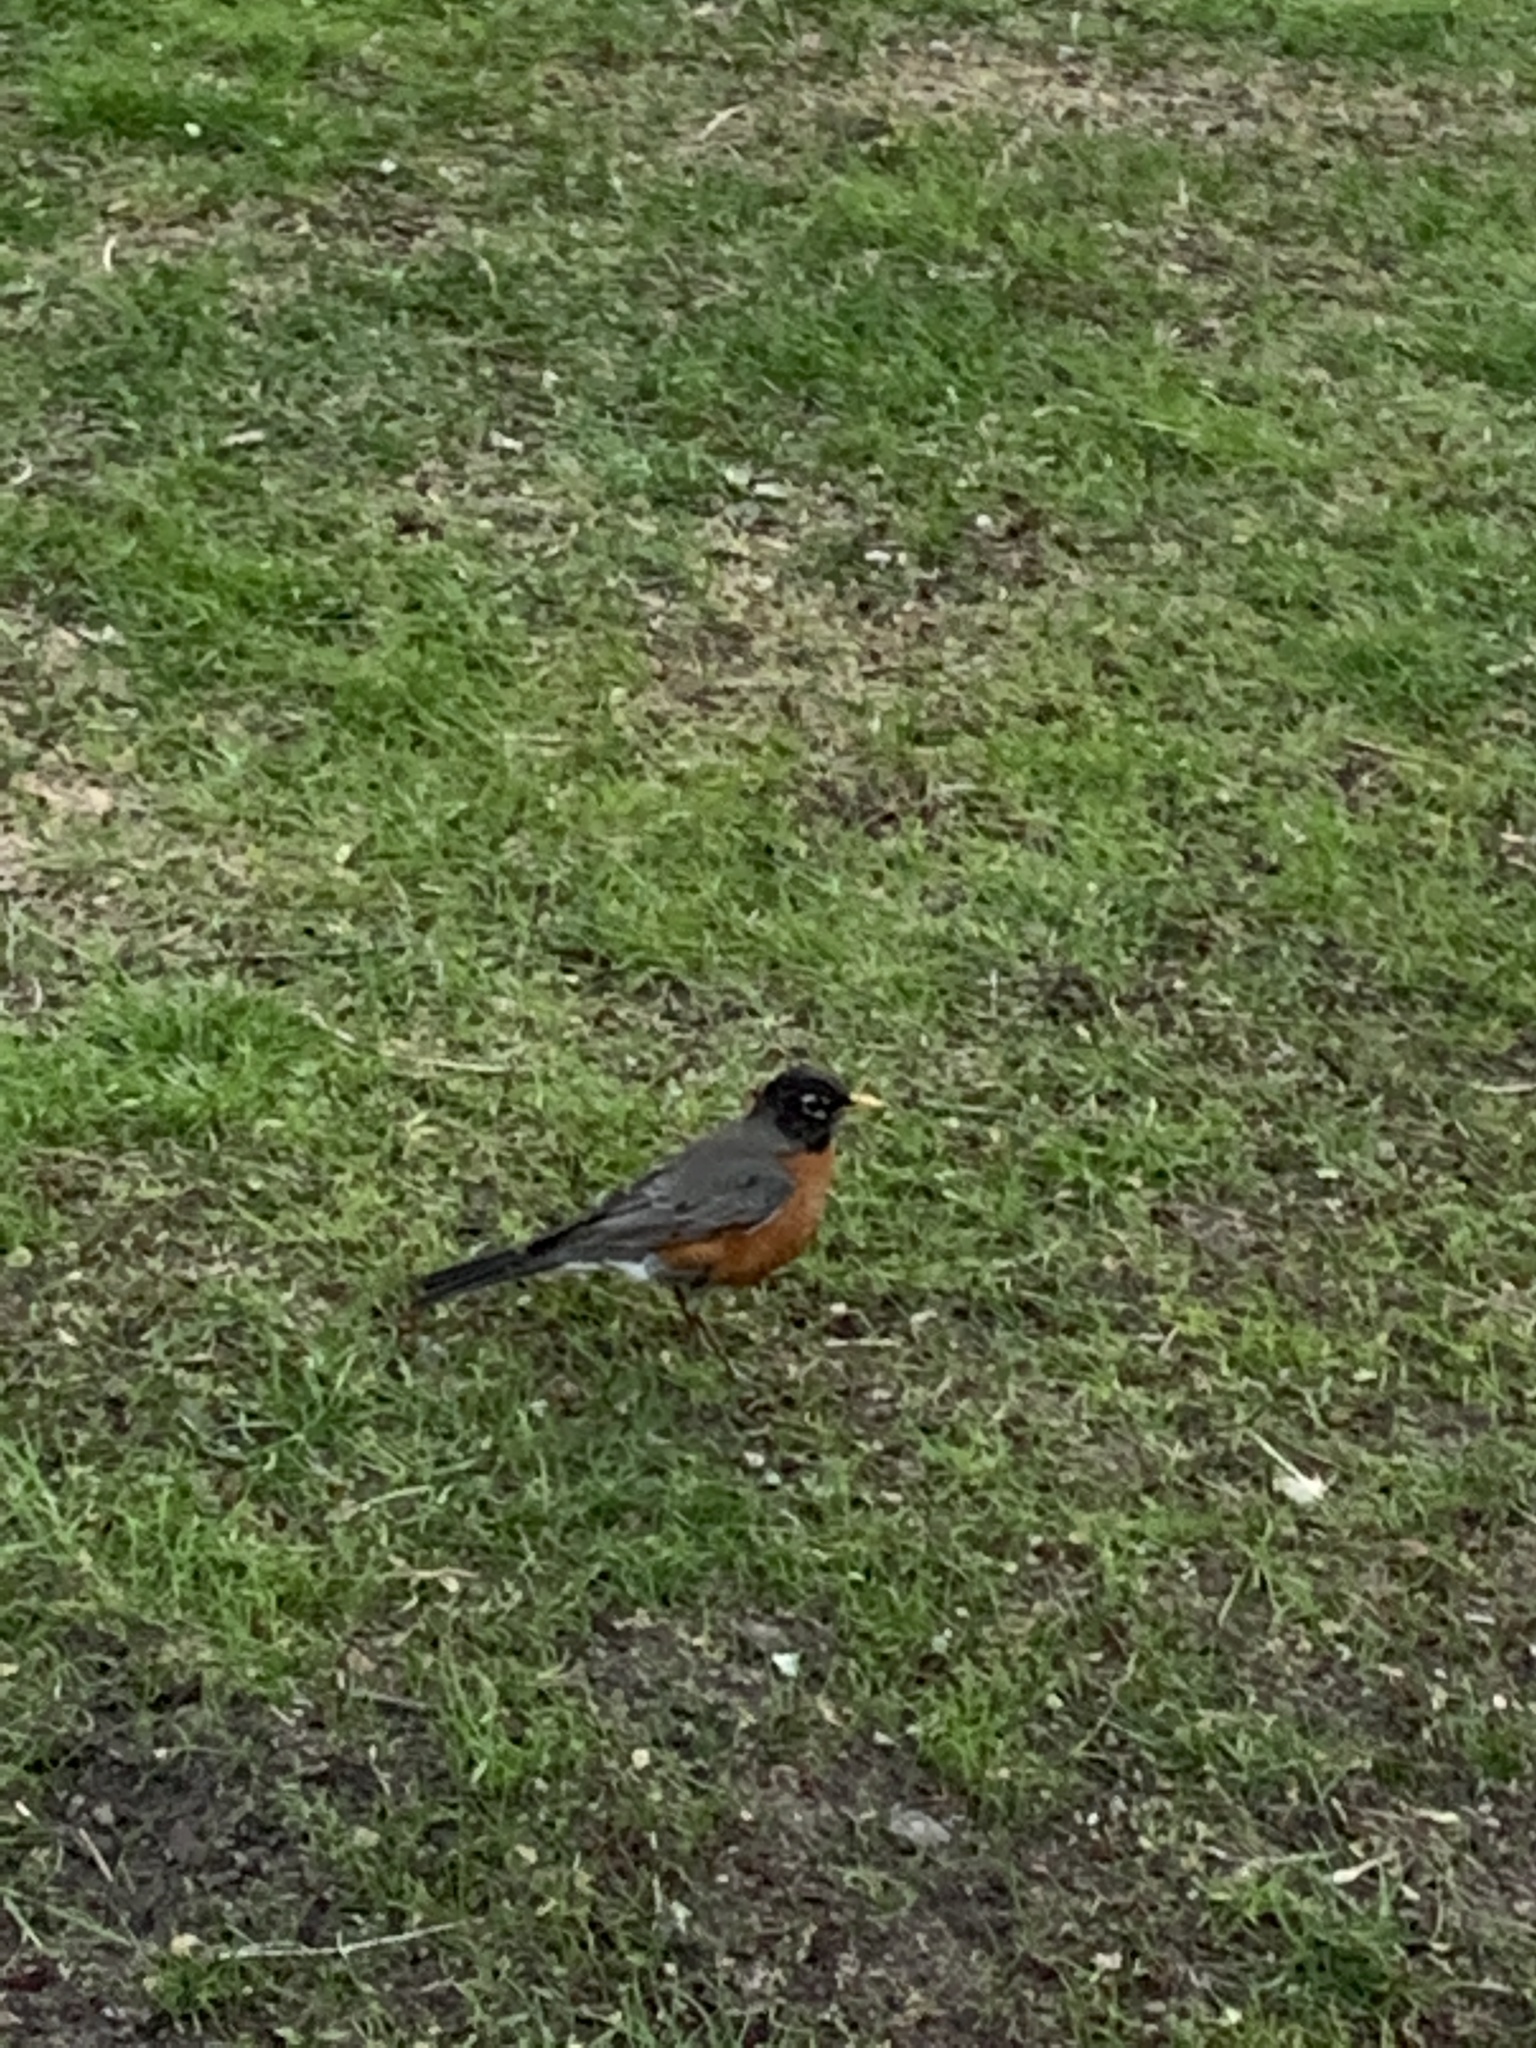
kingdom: Animalia
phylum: Chordata
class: Aves
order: Passeriformes
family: Turdidae
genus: Turdus
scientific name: Turdus migratorius
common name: American robin
